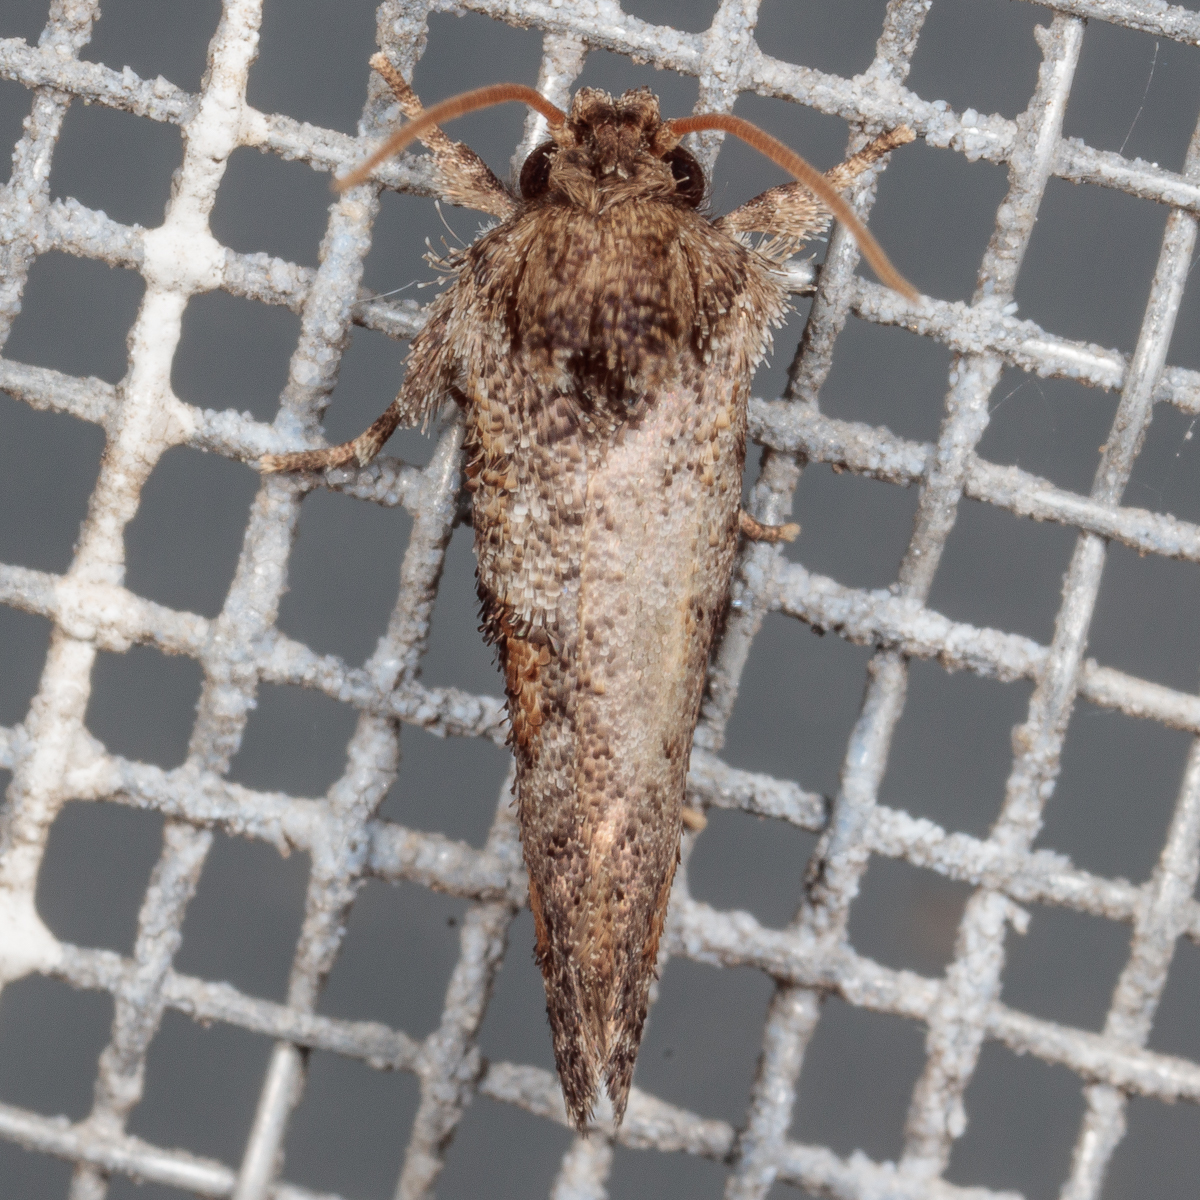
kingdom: Animalia
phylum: Arthropoda
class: Insecta
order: Lepidoptera
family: Tineidae
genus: Acrolophus
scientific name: Acrolophus piger
